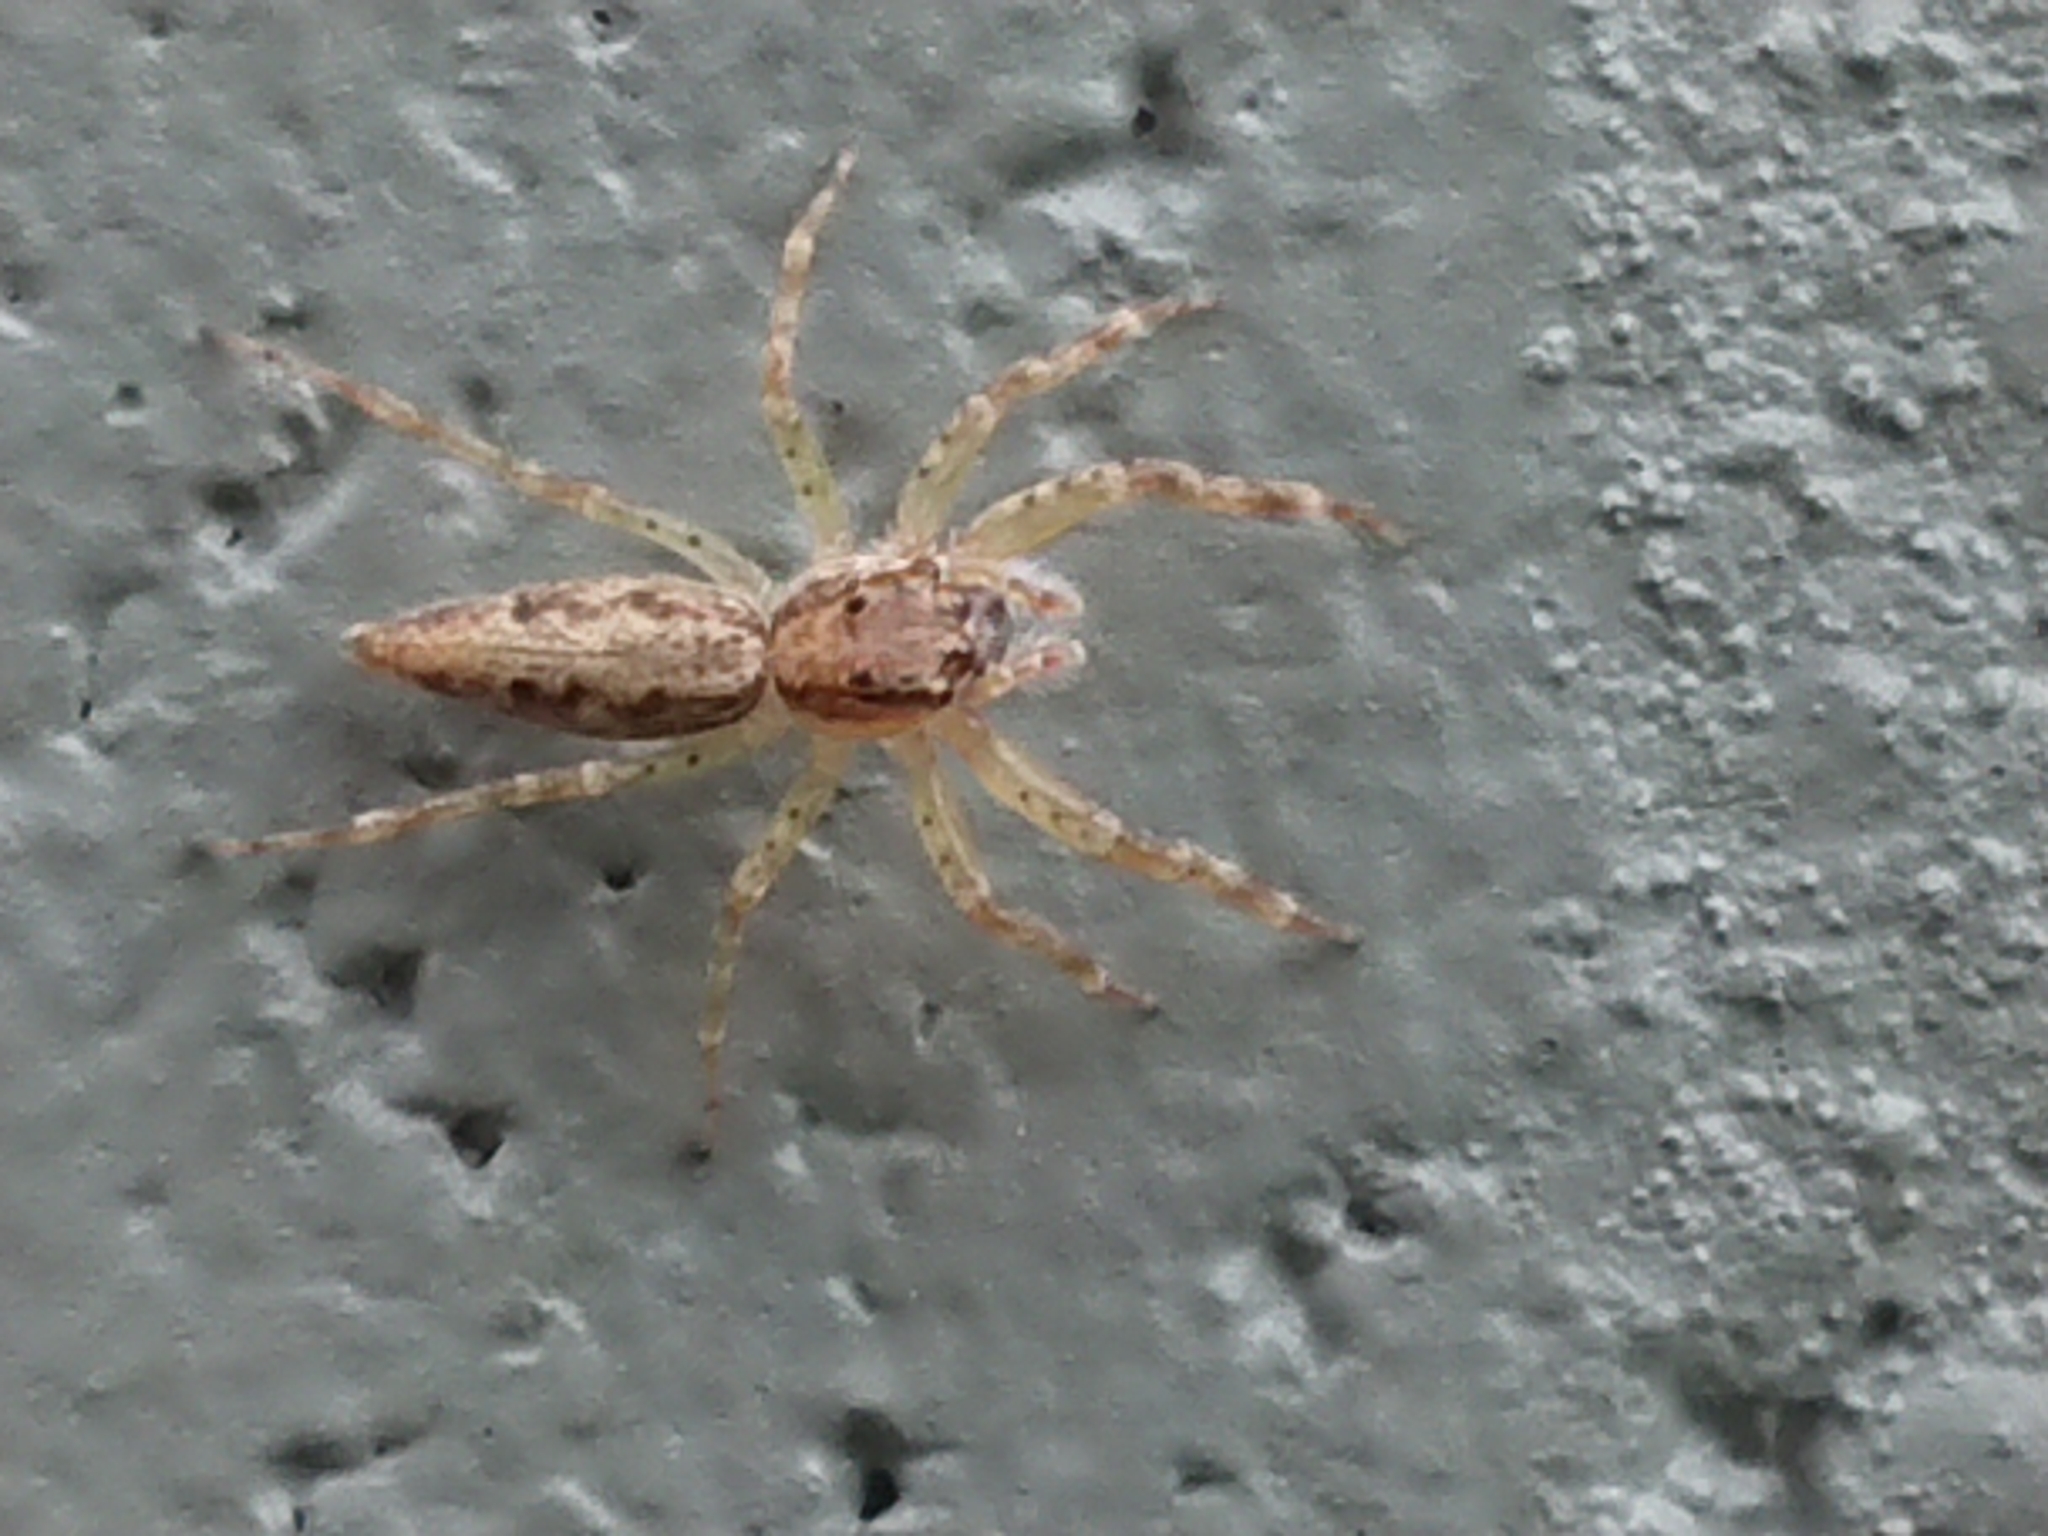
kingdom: Animalia
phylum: Arthropoda
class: Arachnida
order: Araneae
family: Salticidae
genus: Helpis
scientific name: Helpis minitabunda
